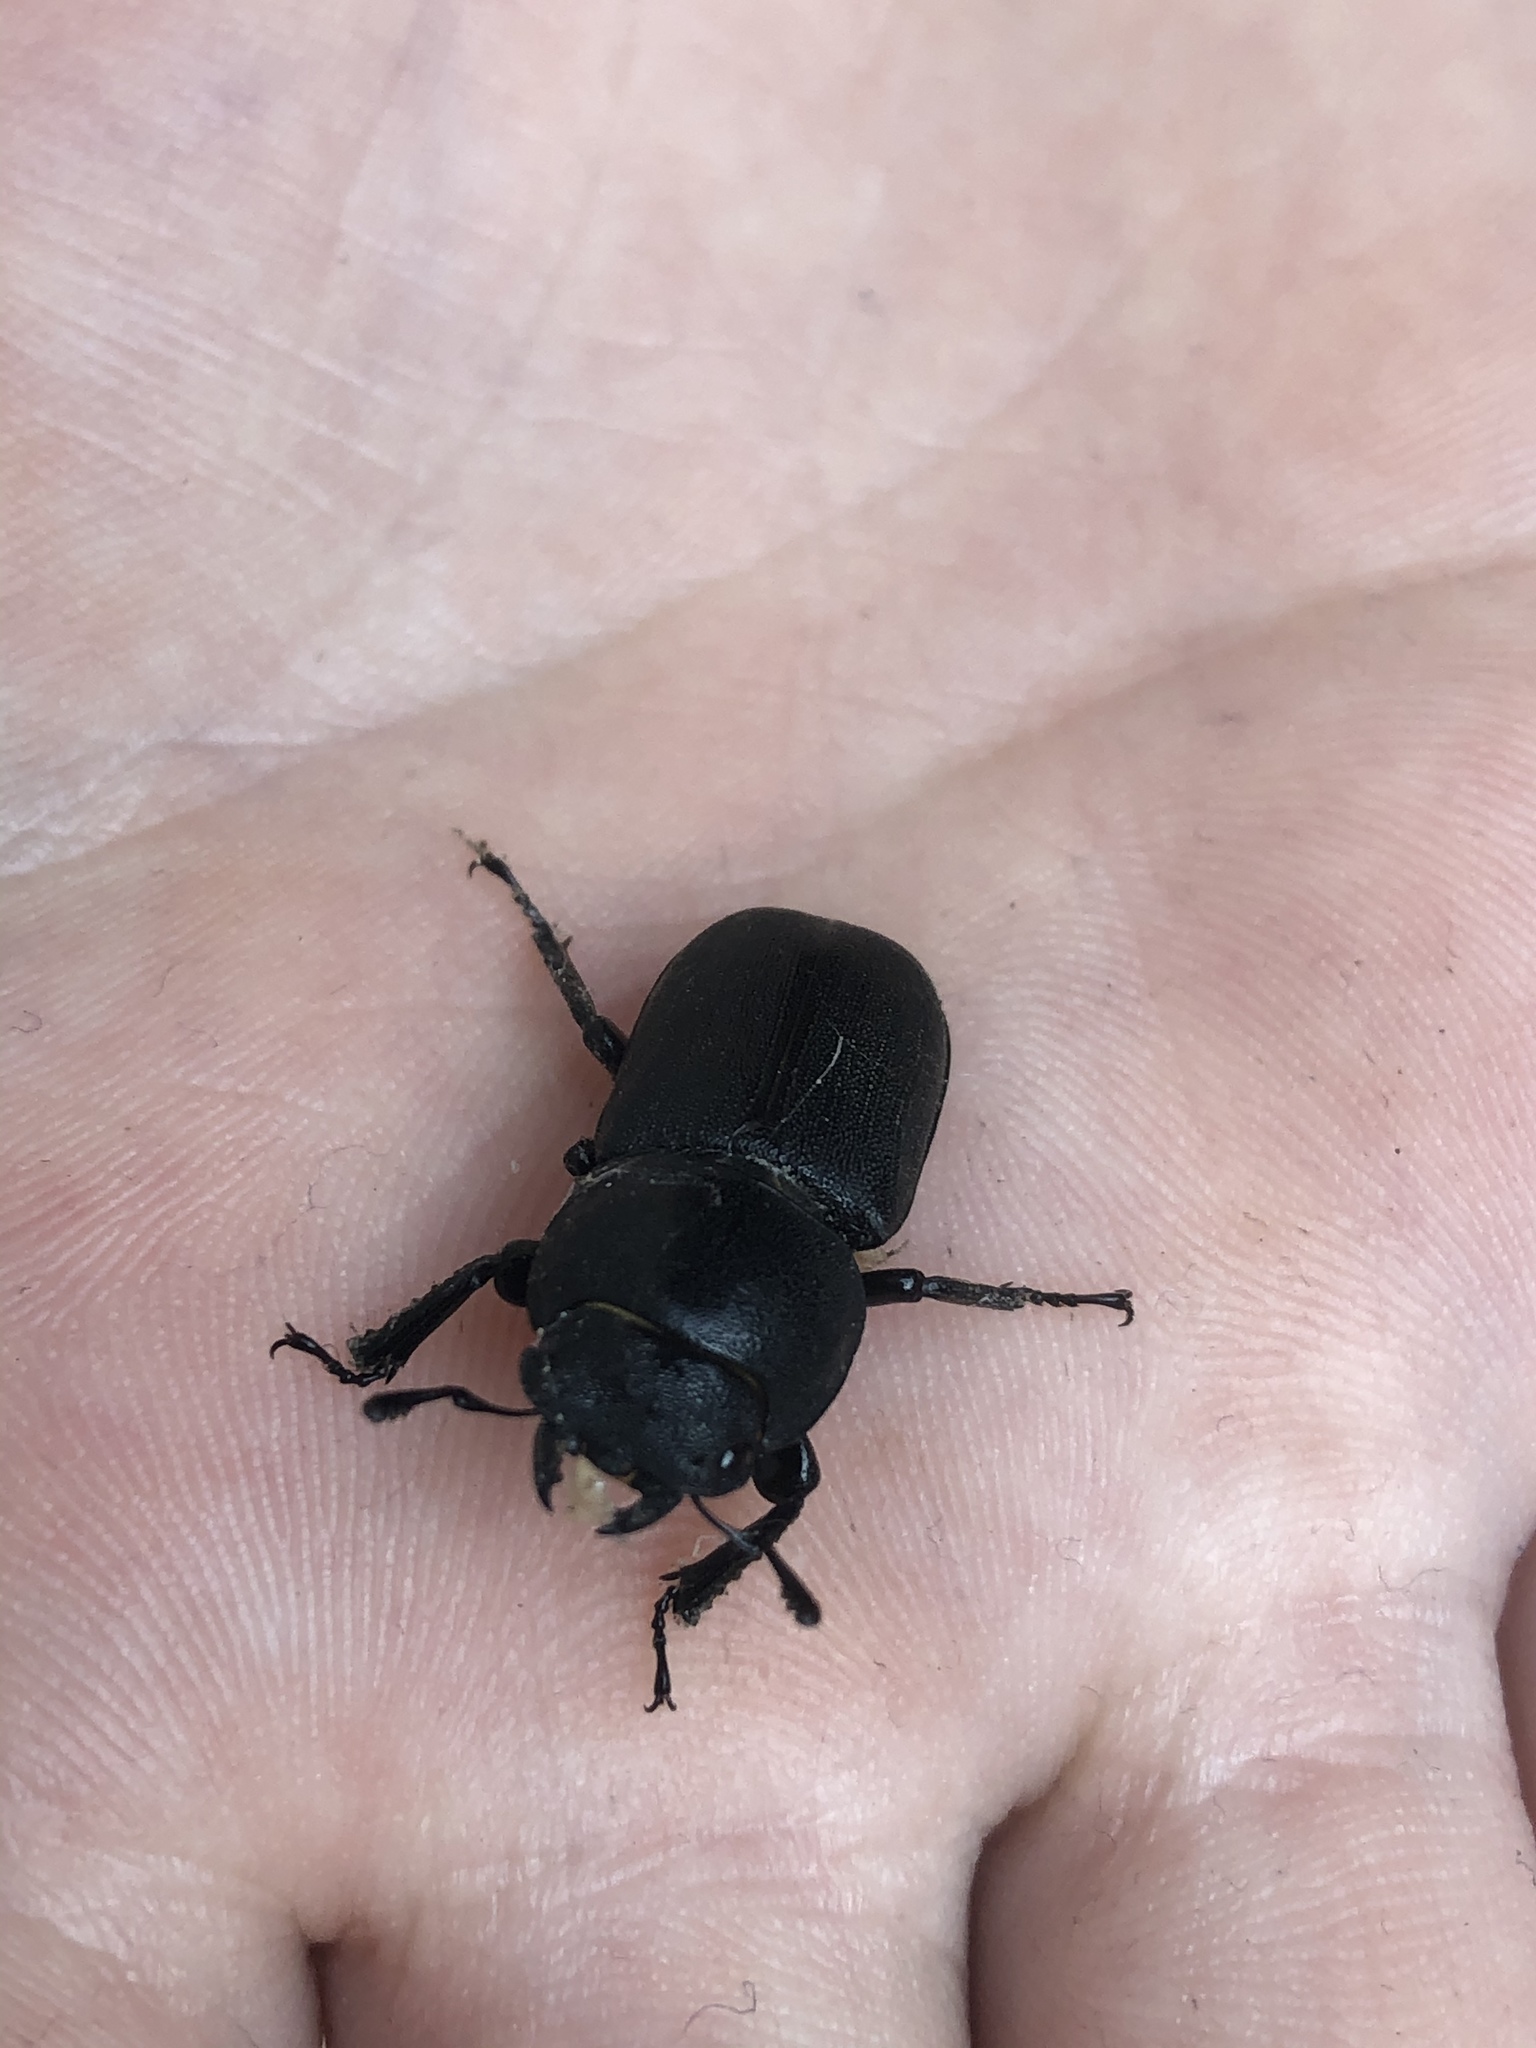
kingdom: Animalia
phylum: Arthropoda
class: Insecta
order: Coleoptera
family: Lucanidae
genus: Dorcus
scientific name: Dorcus parallelipipedus
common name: Lesser stag beetle
